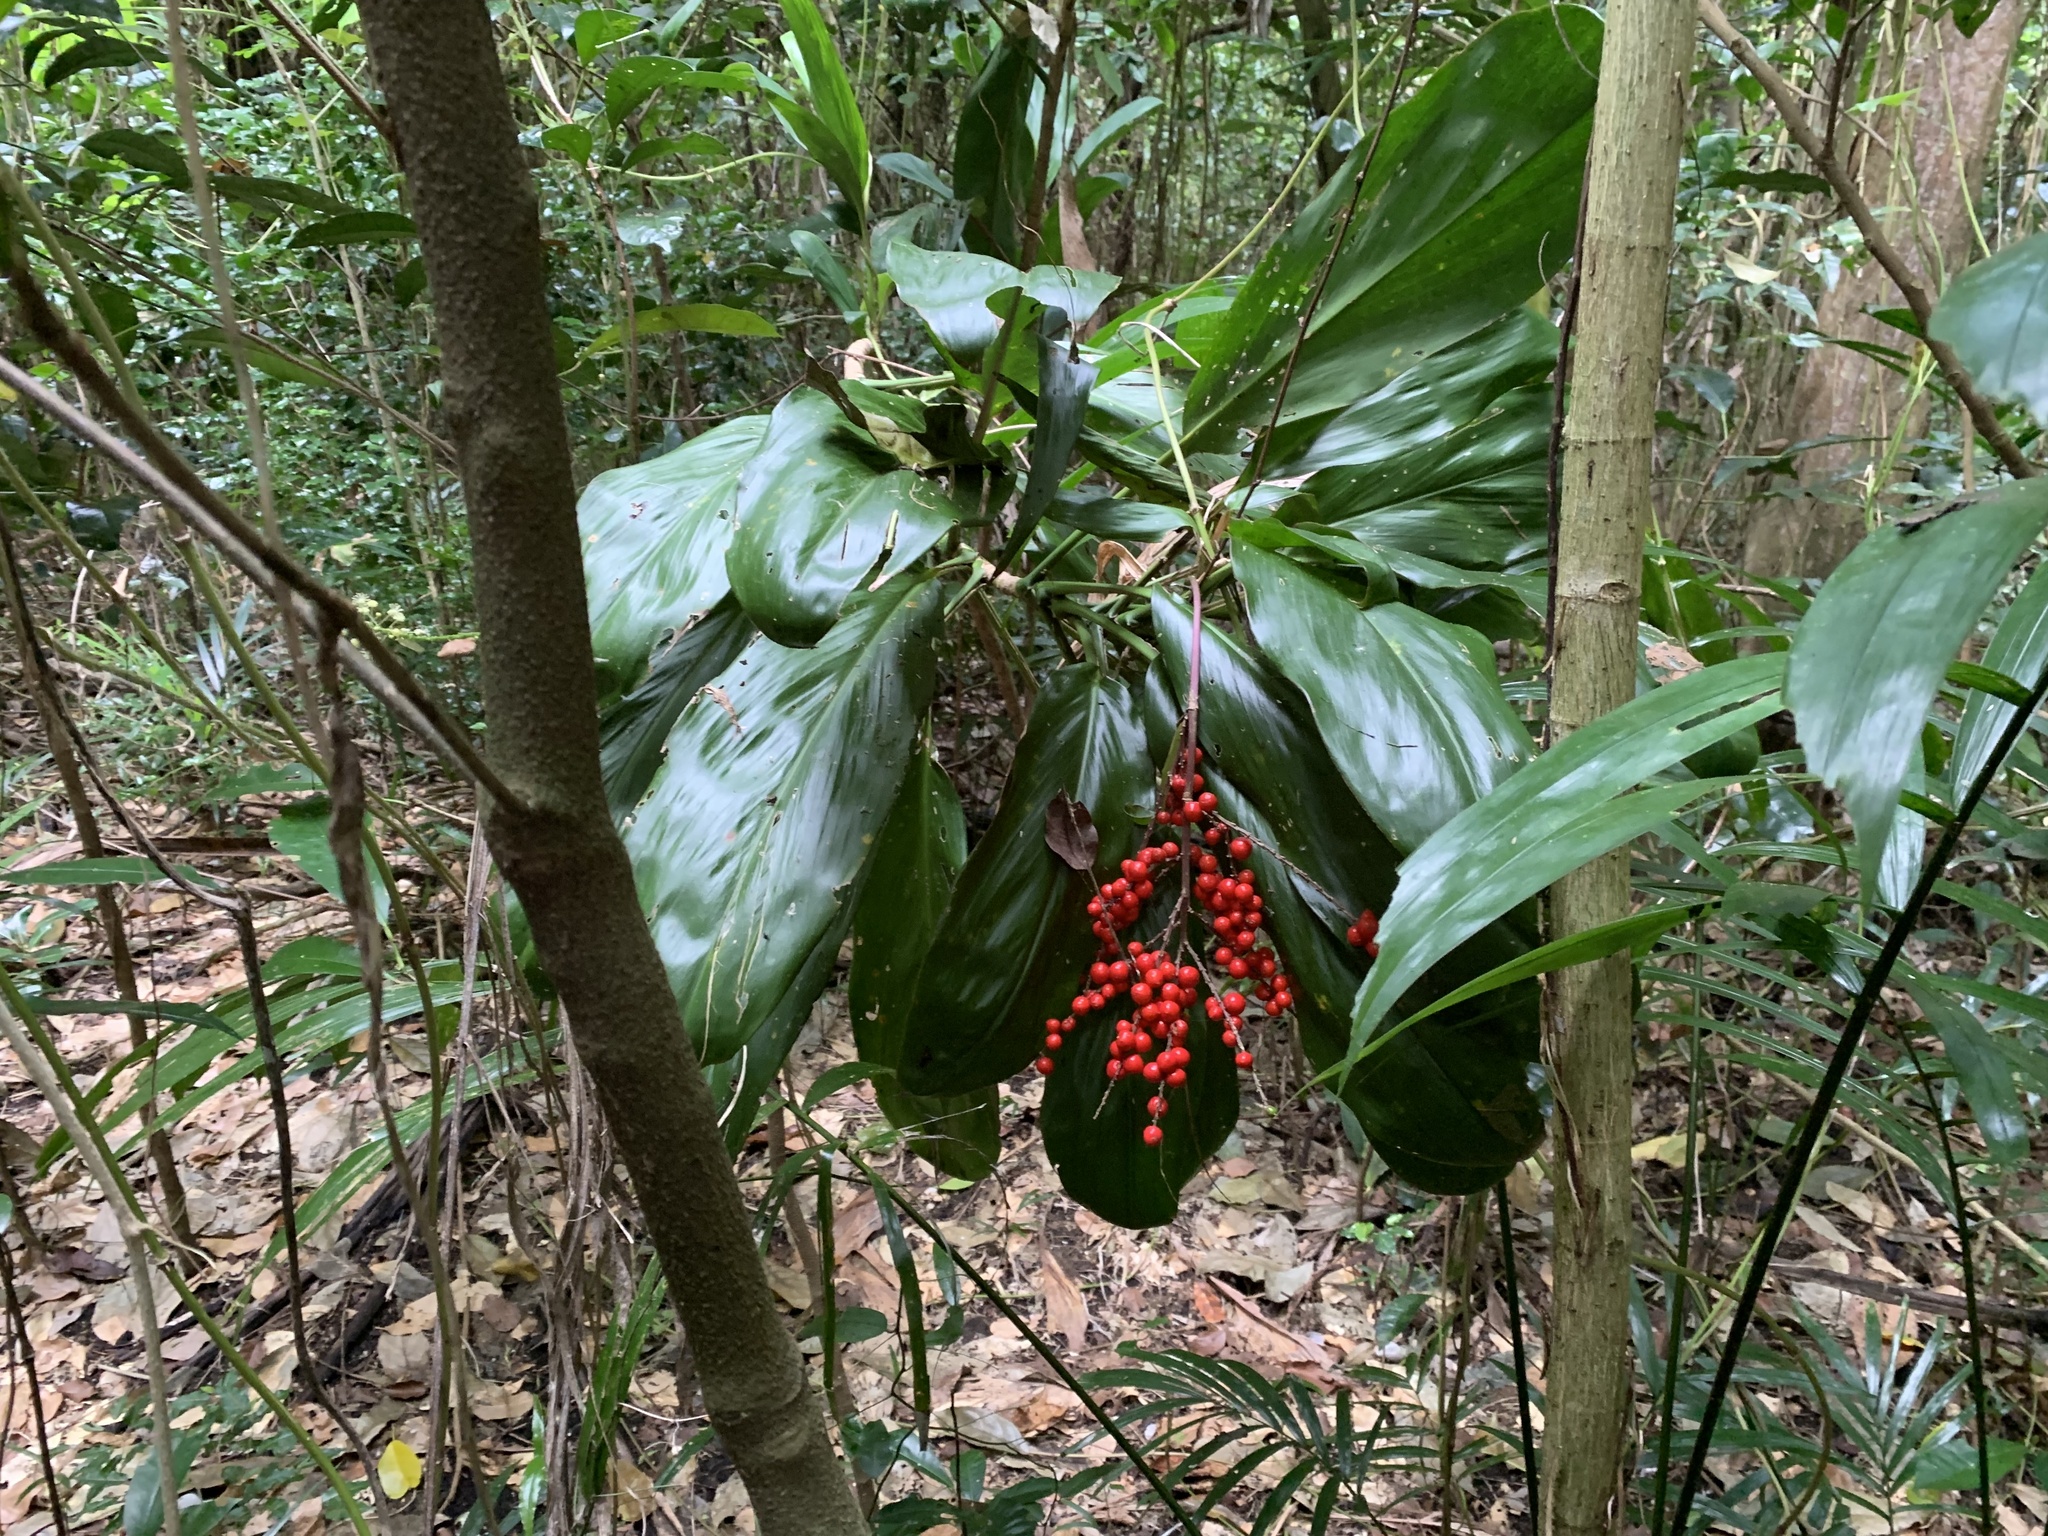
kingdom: Plantae
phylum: Tracheophyta
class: Liliopsida
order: Asparagales
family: Asparagaceae
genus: Cordyline
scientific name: Cordyline fruticosa
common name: Good-luck-plant
